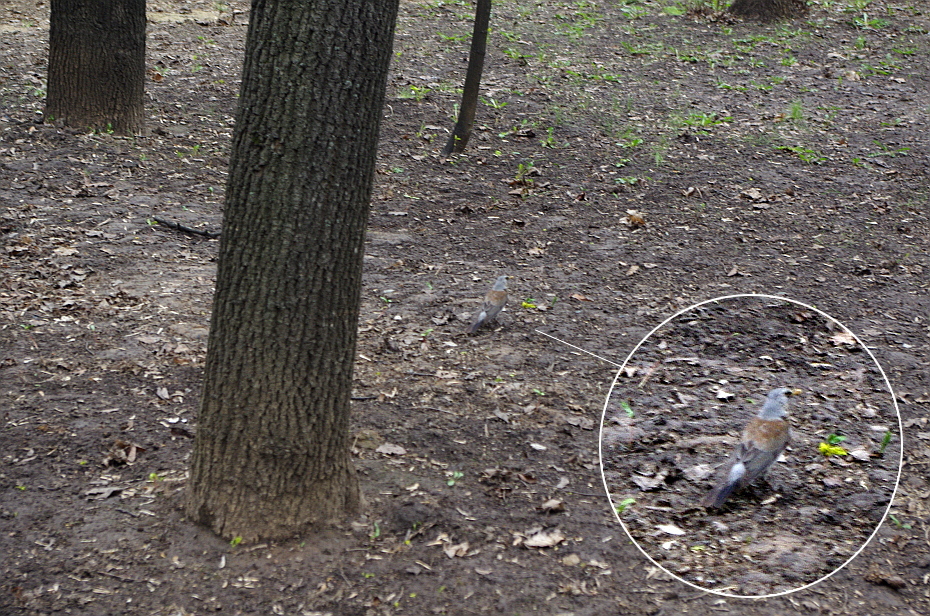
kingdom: Animalia
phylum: Chordata
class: Aves
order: Passeriformes
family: Turdidae
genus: Turdus
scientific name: Turdus pilaris
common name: Fieldfare
